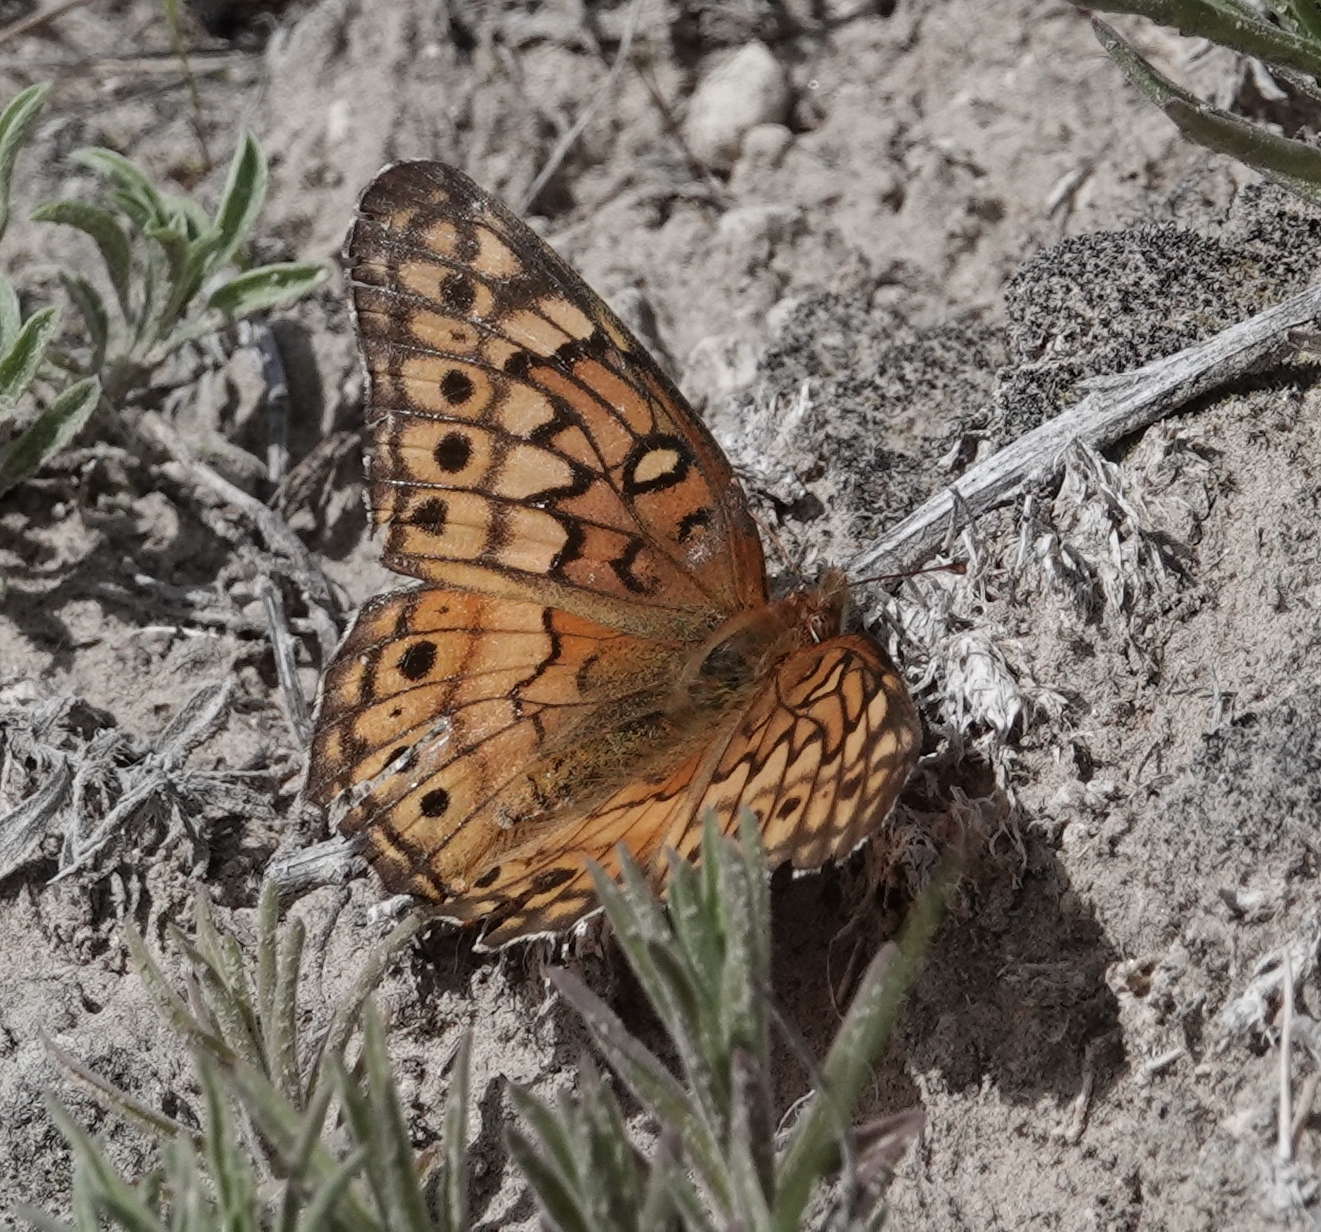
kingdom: Animalia
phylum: Arthropoda
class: Insecta
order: Lepidoptera
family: Nymphalidae
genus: Euptoieta
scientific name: Euptoieta claudia
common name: Variegated fritillary
